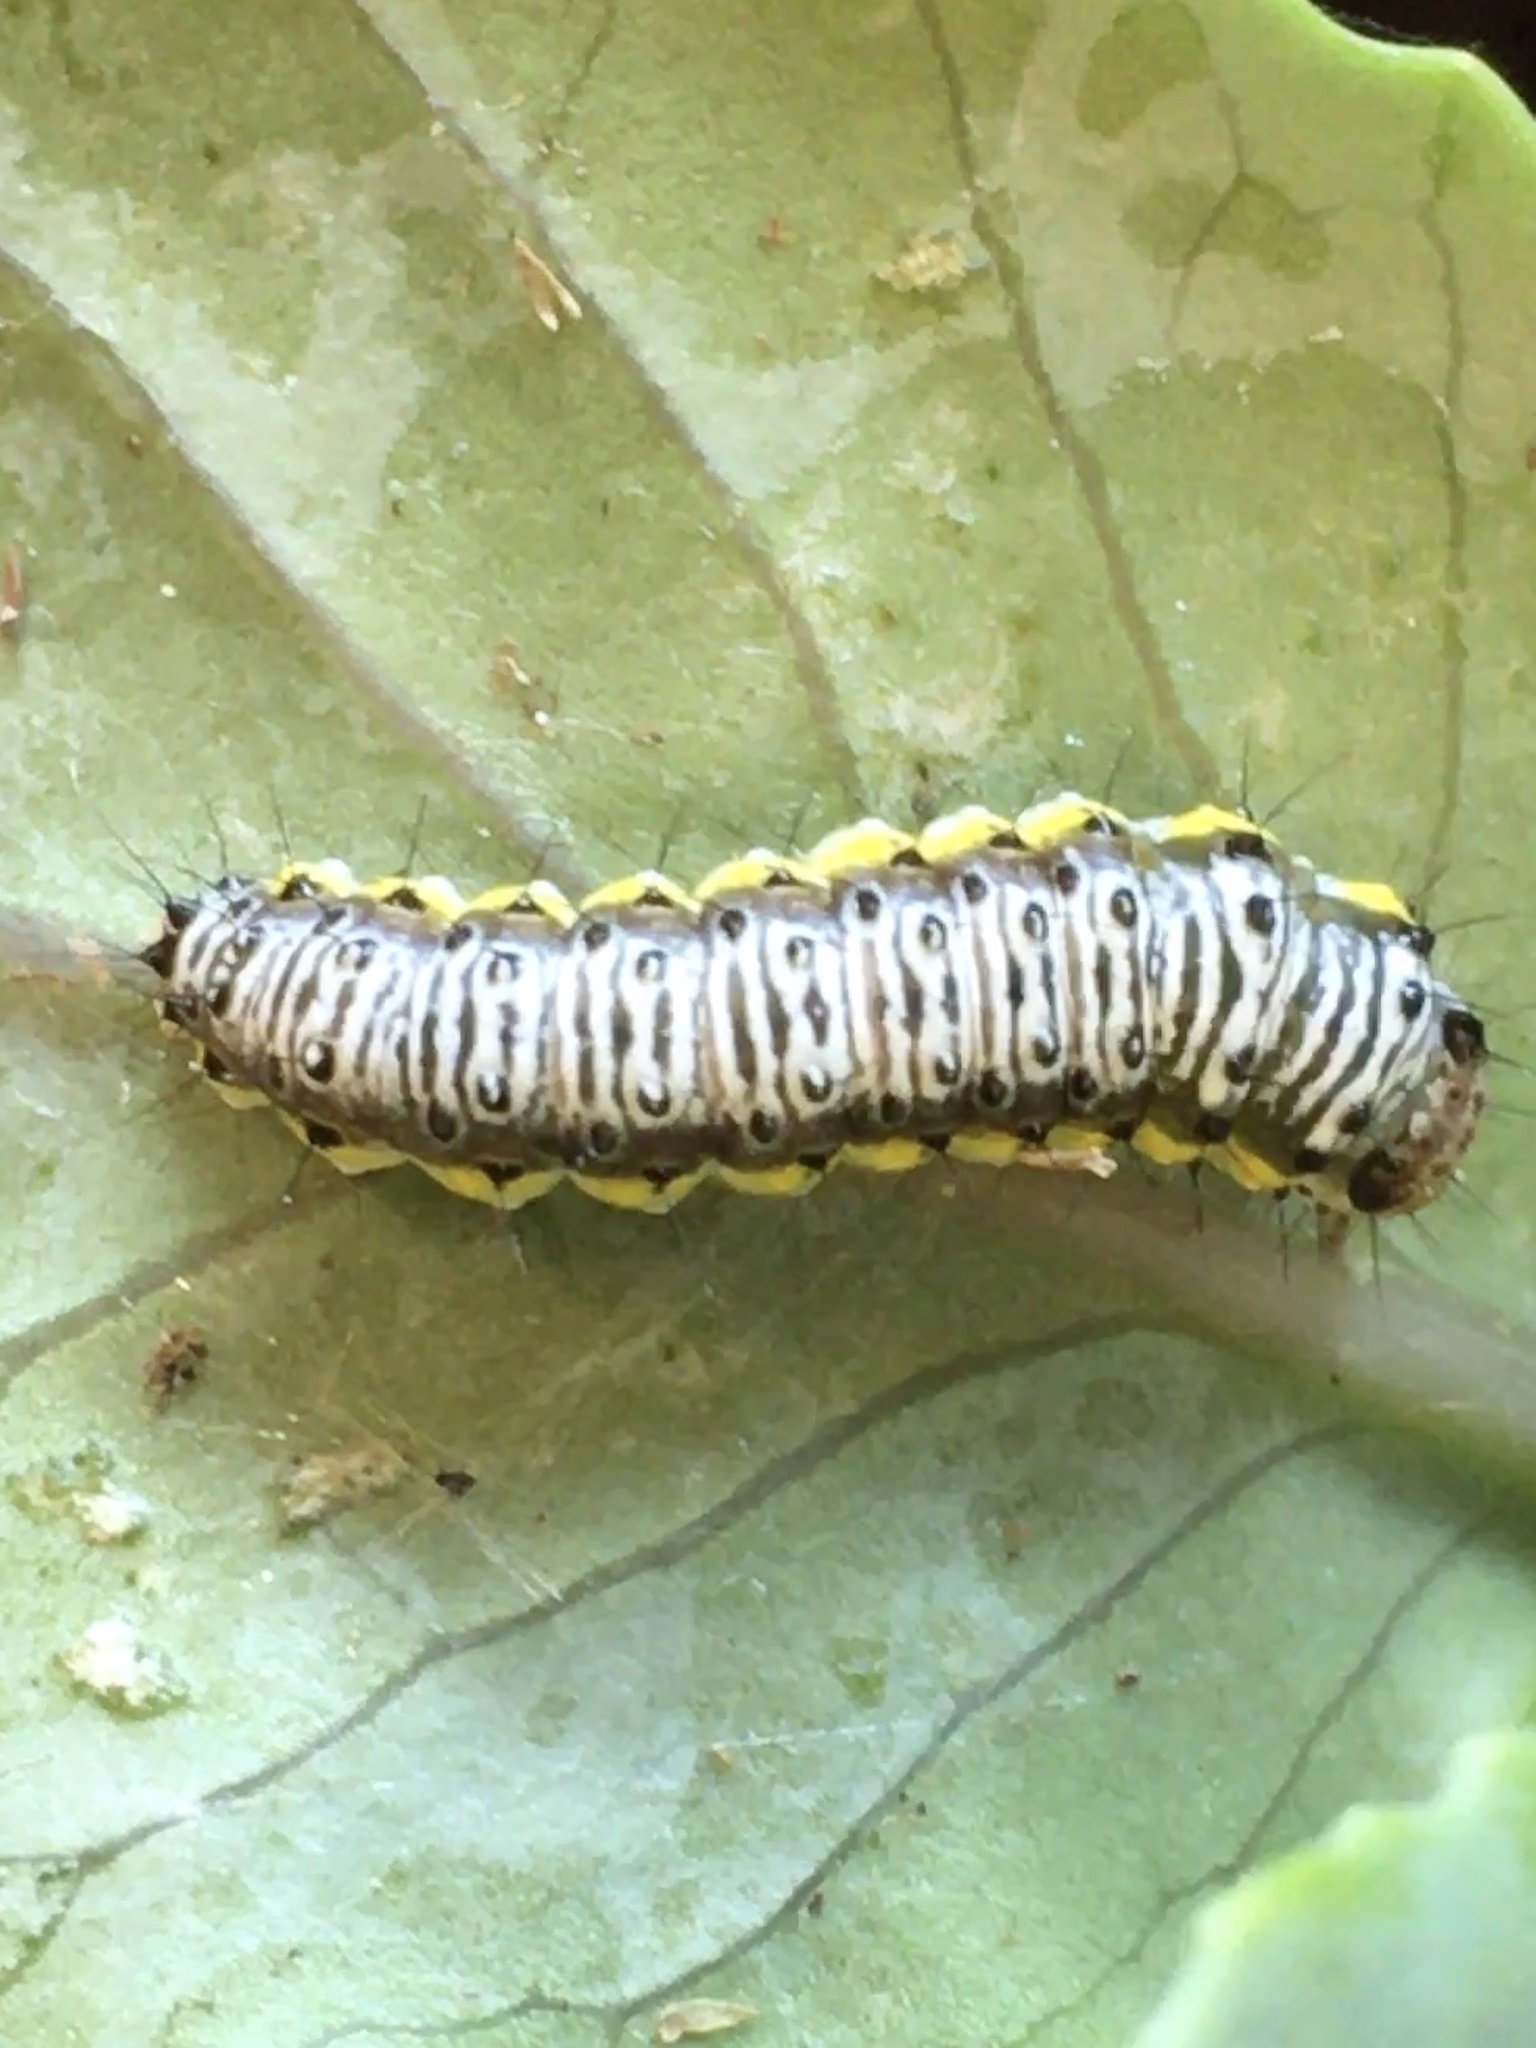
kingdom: Animalia
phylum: Arthropoda
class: Insecta
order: Lepidoptera
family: Crambidae
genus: Evergestis
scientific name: Evergestis rimosalis
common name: Cross-striped cabbageworm moth
